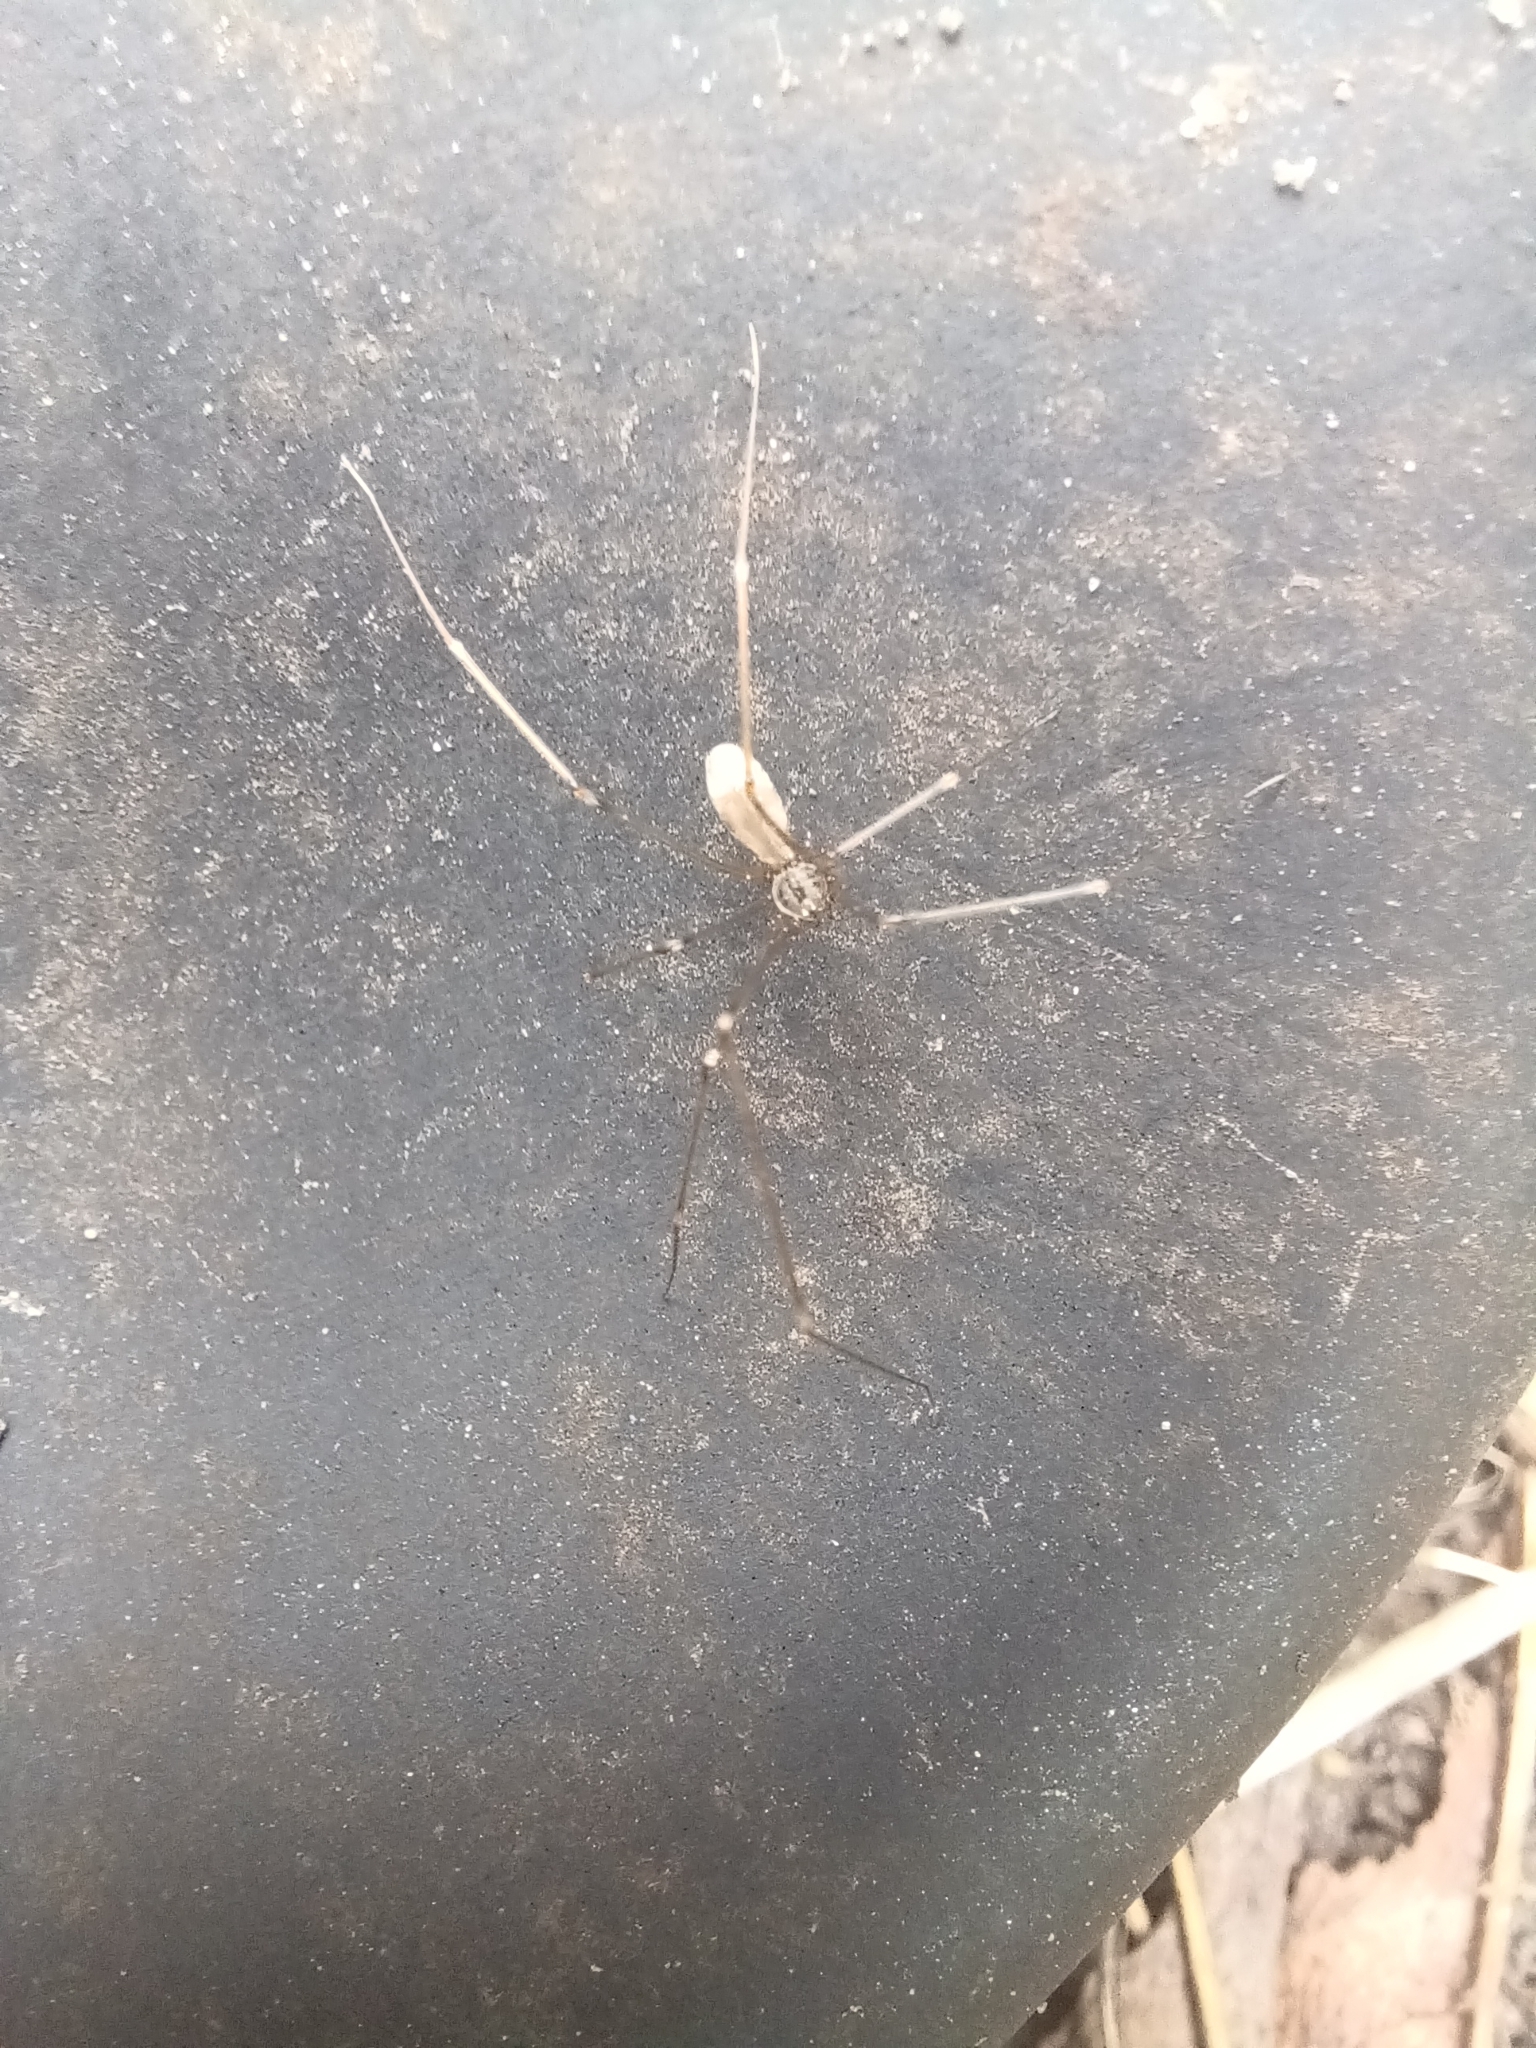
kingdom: Animalia
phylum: Arthropoda
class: Arachnida
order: Araneae
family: Pholcidae
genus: Pholcus
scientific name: Pholcus opilionoides
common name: Daddylongleg spider
